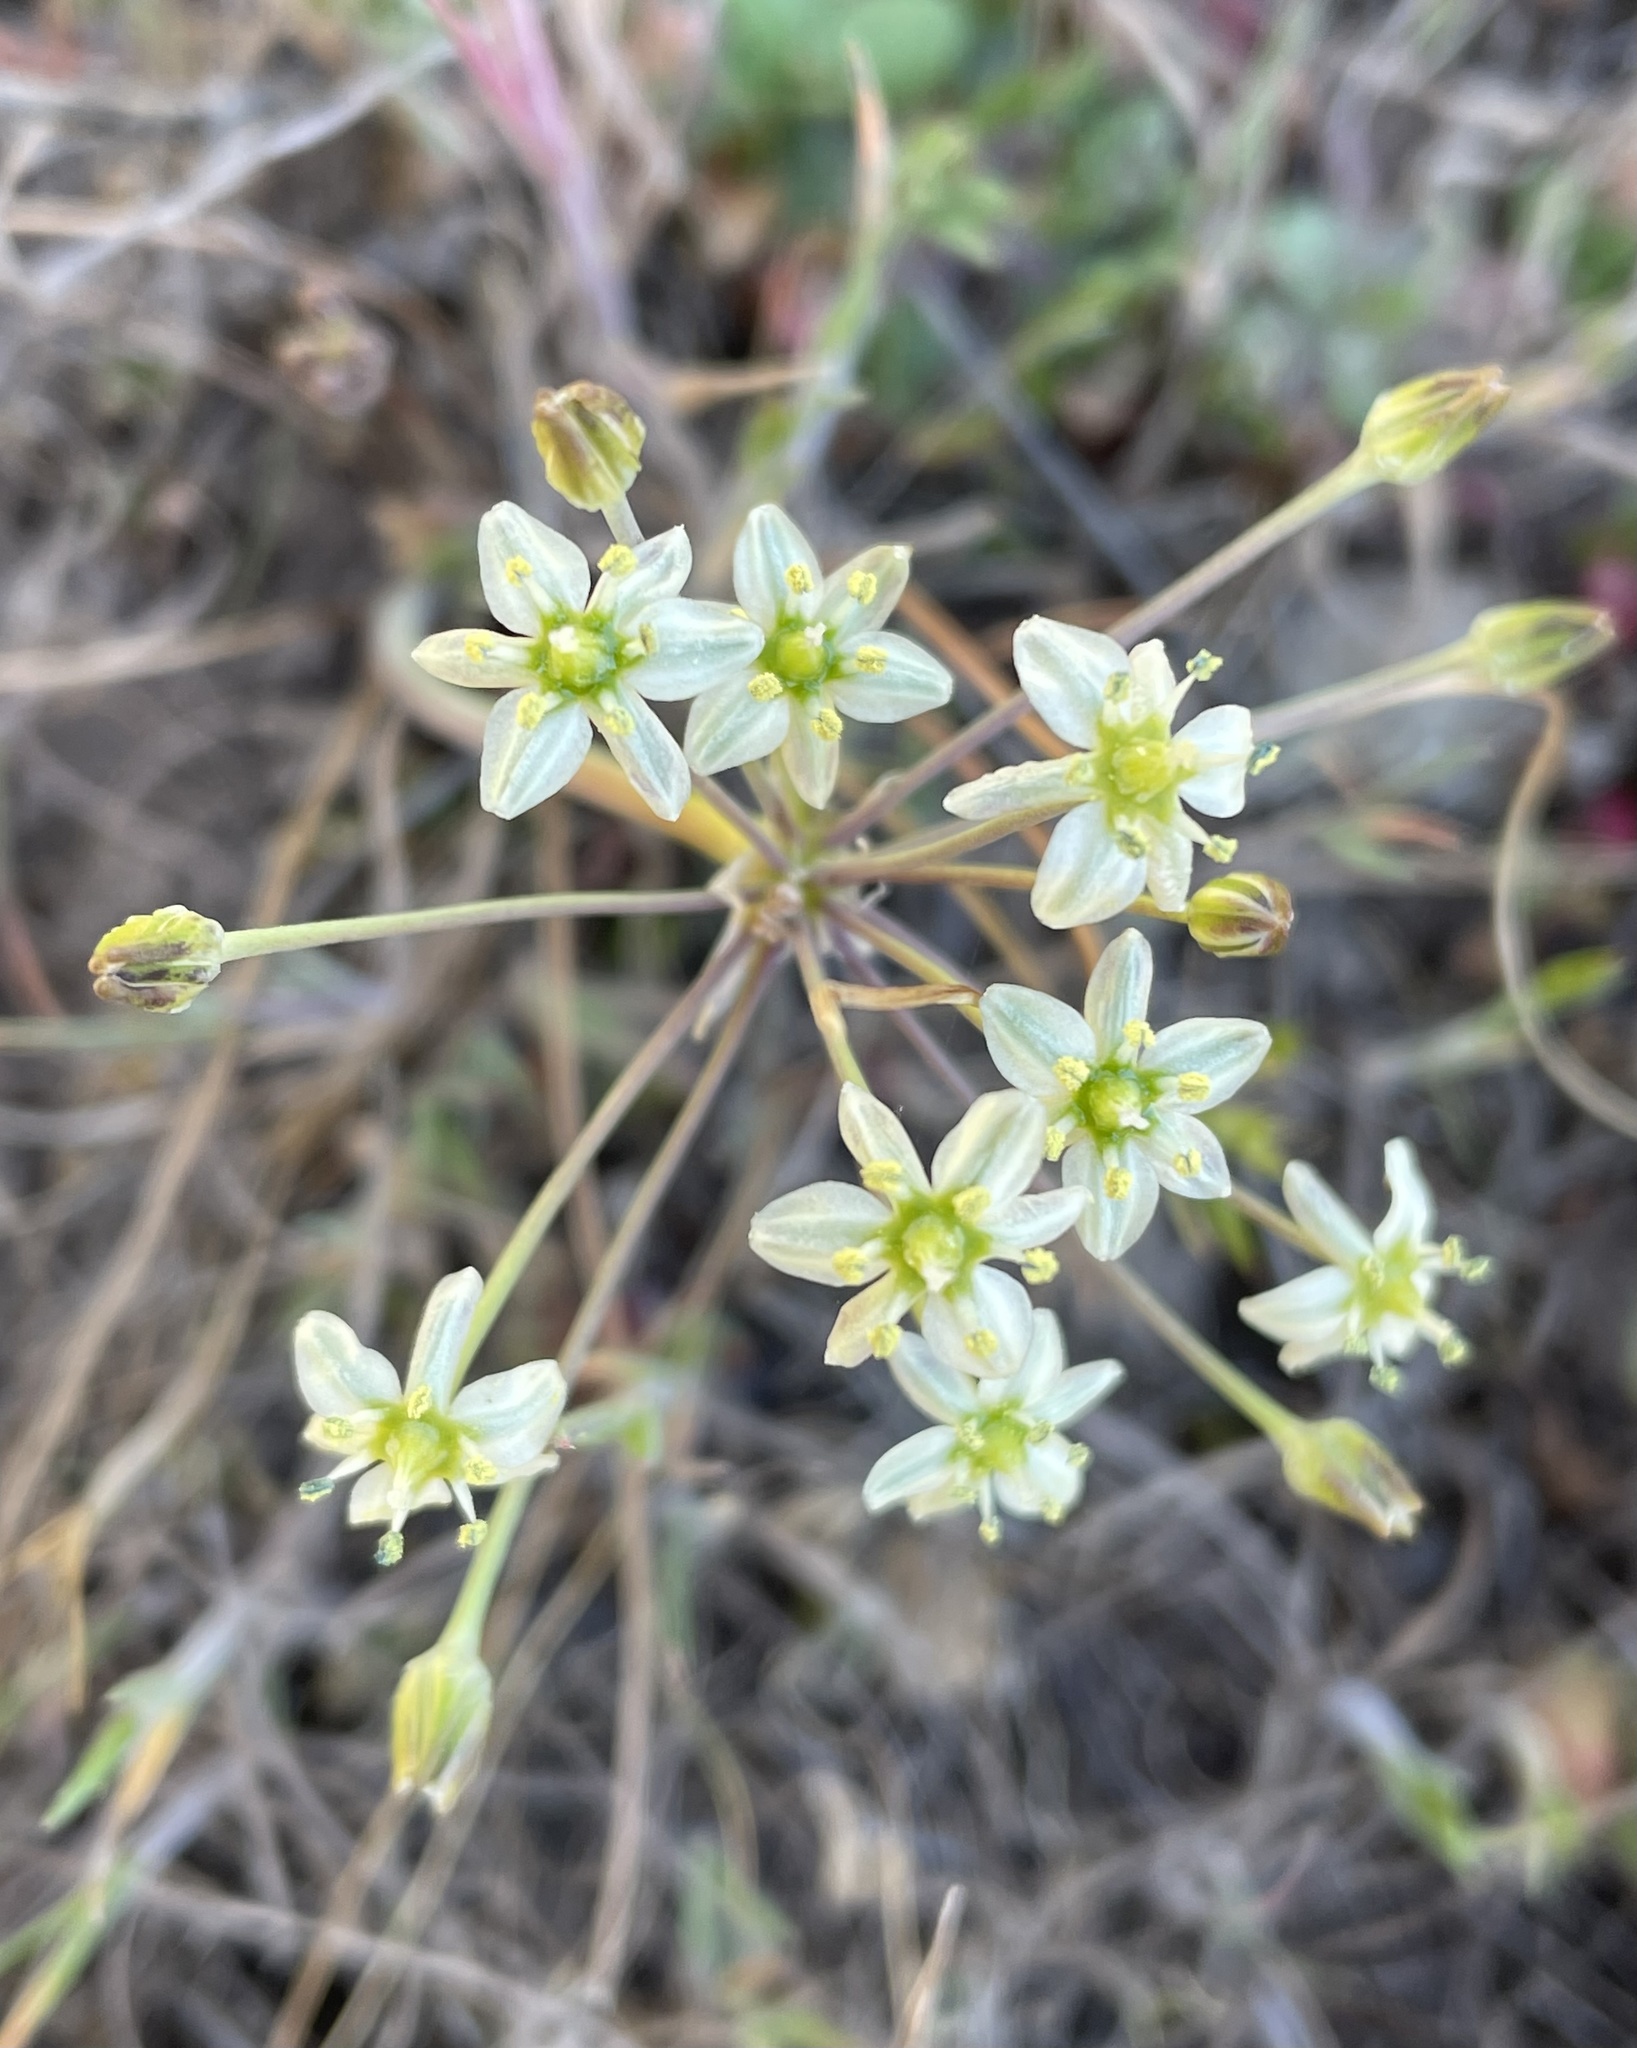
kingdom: Plantae
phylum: Tracheophyta
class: Liliopsida
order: Asparagales
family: Asparagaceae
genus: Muilla
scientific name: Muilla maritima
